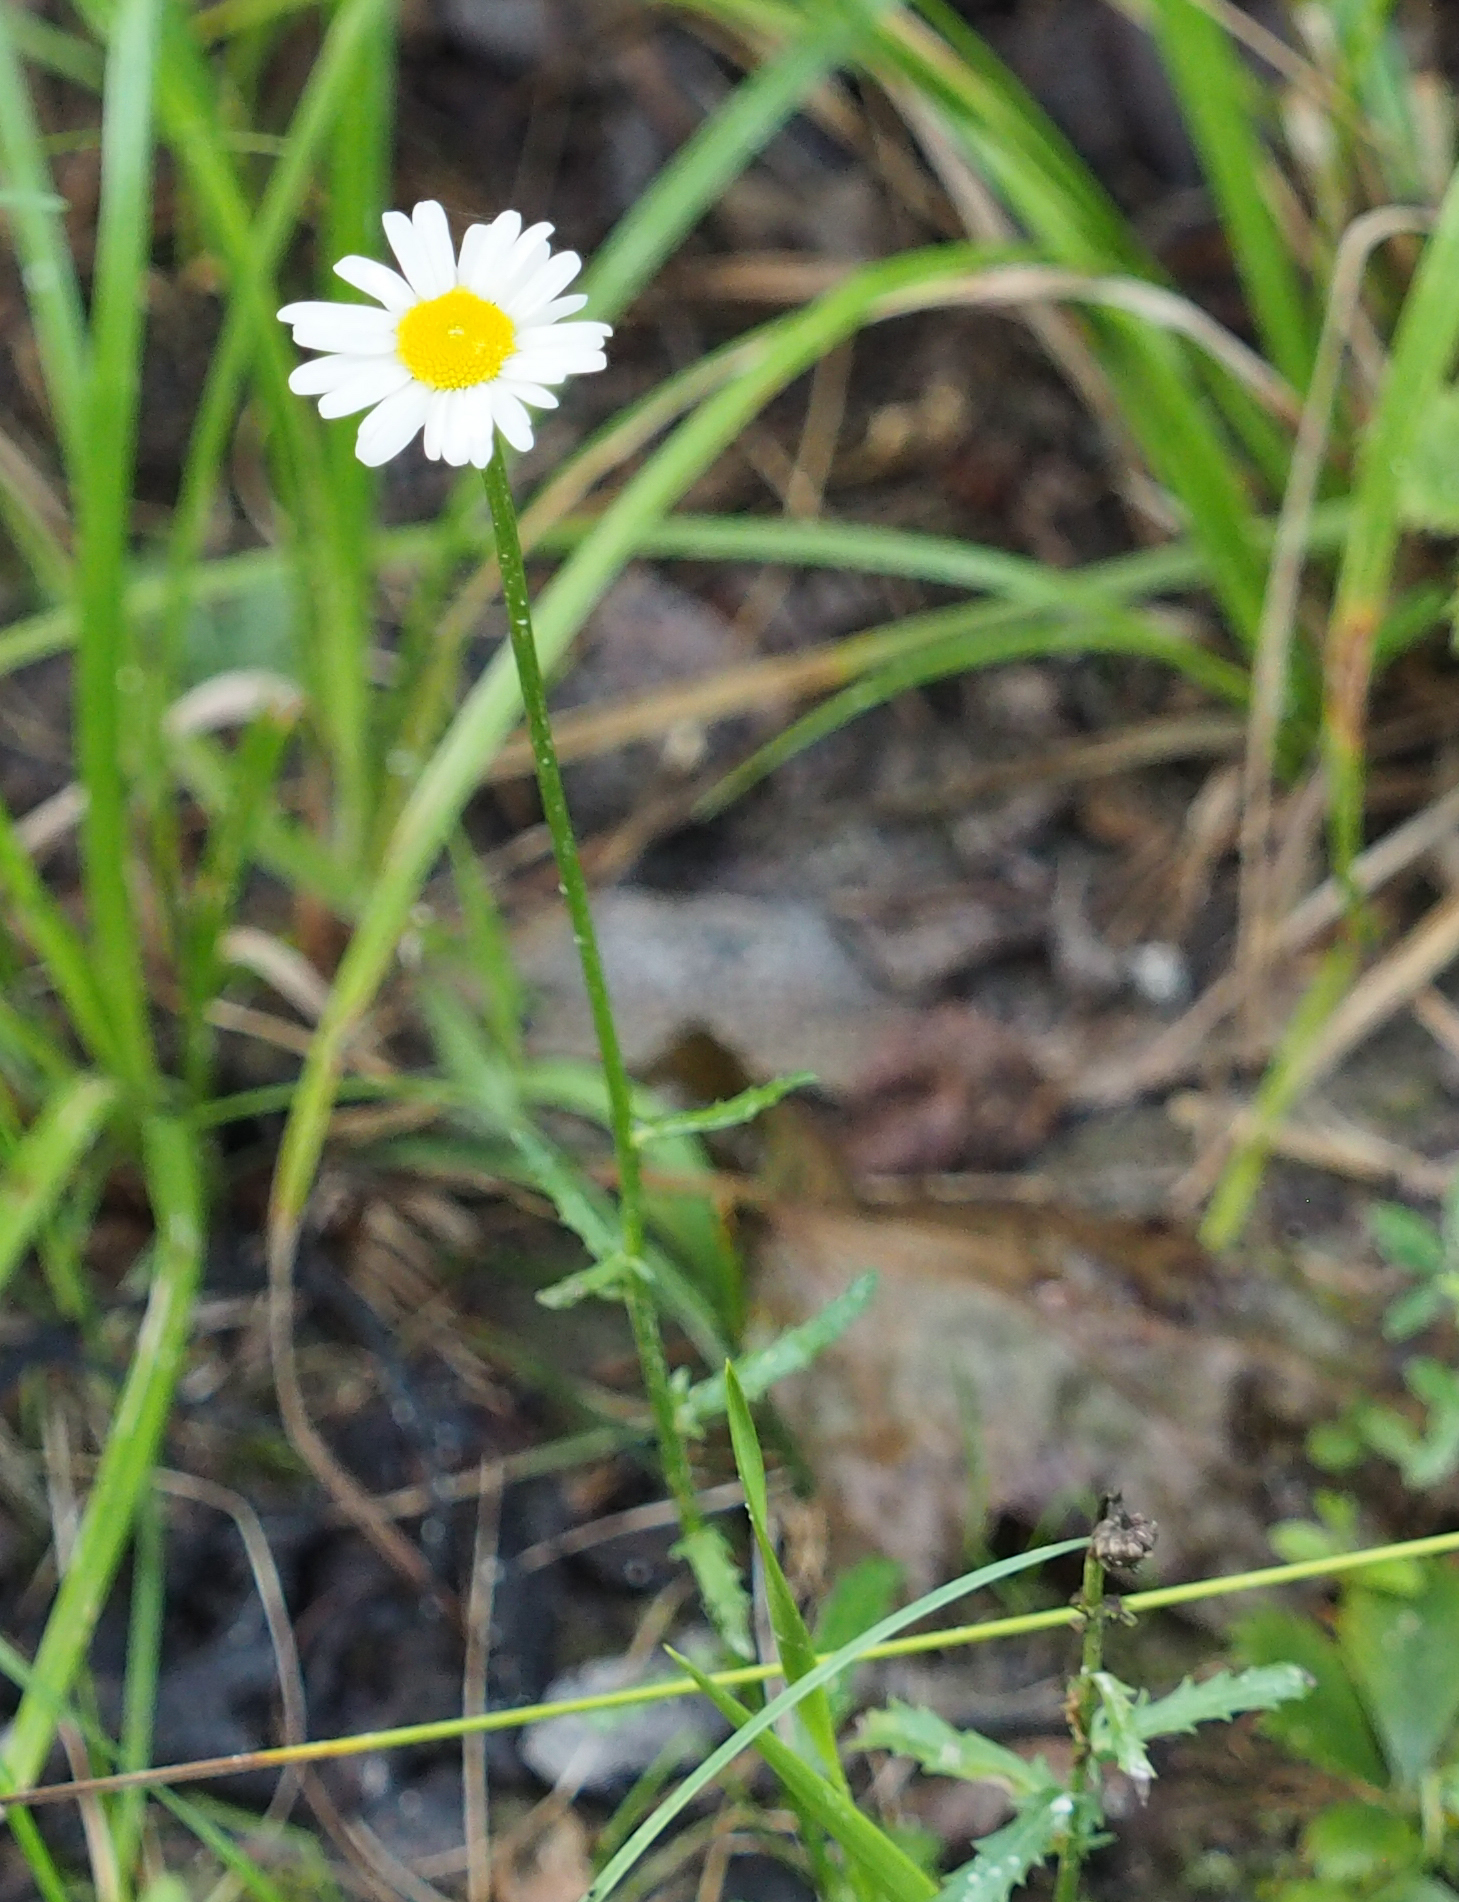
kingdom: Plantae
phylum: Tracheophyta
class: Magnoliopsida
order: Asterales
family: Asteraceae
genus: Leucanthemum
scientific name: Leucanthemum vulgare
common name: Oxeye daisy
